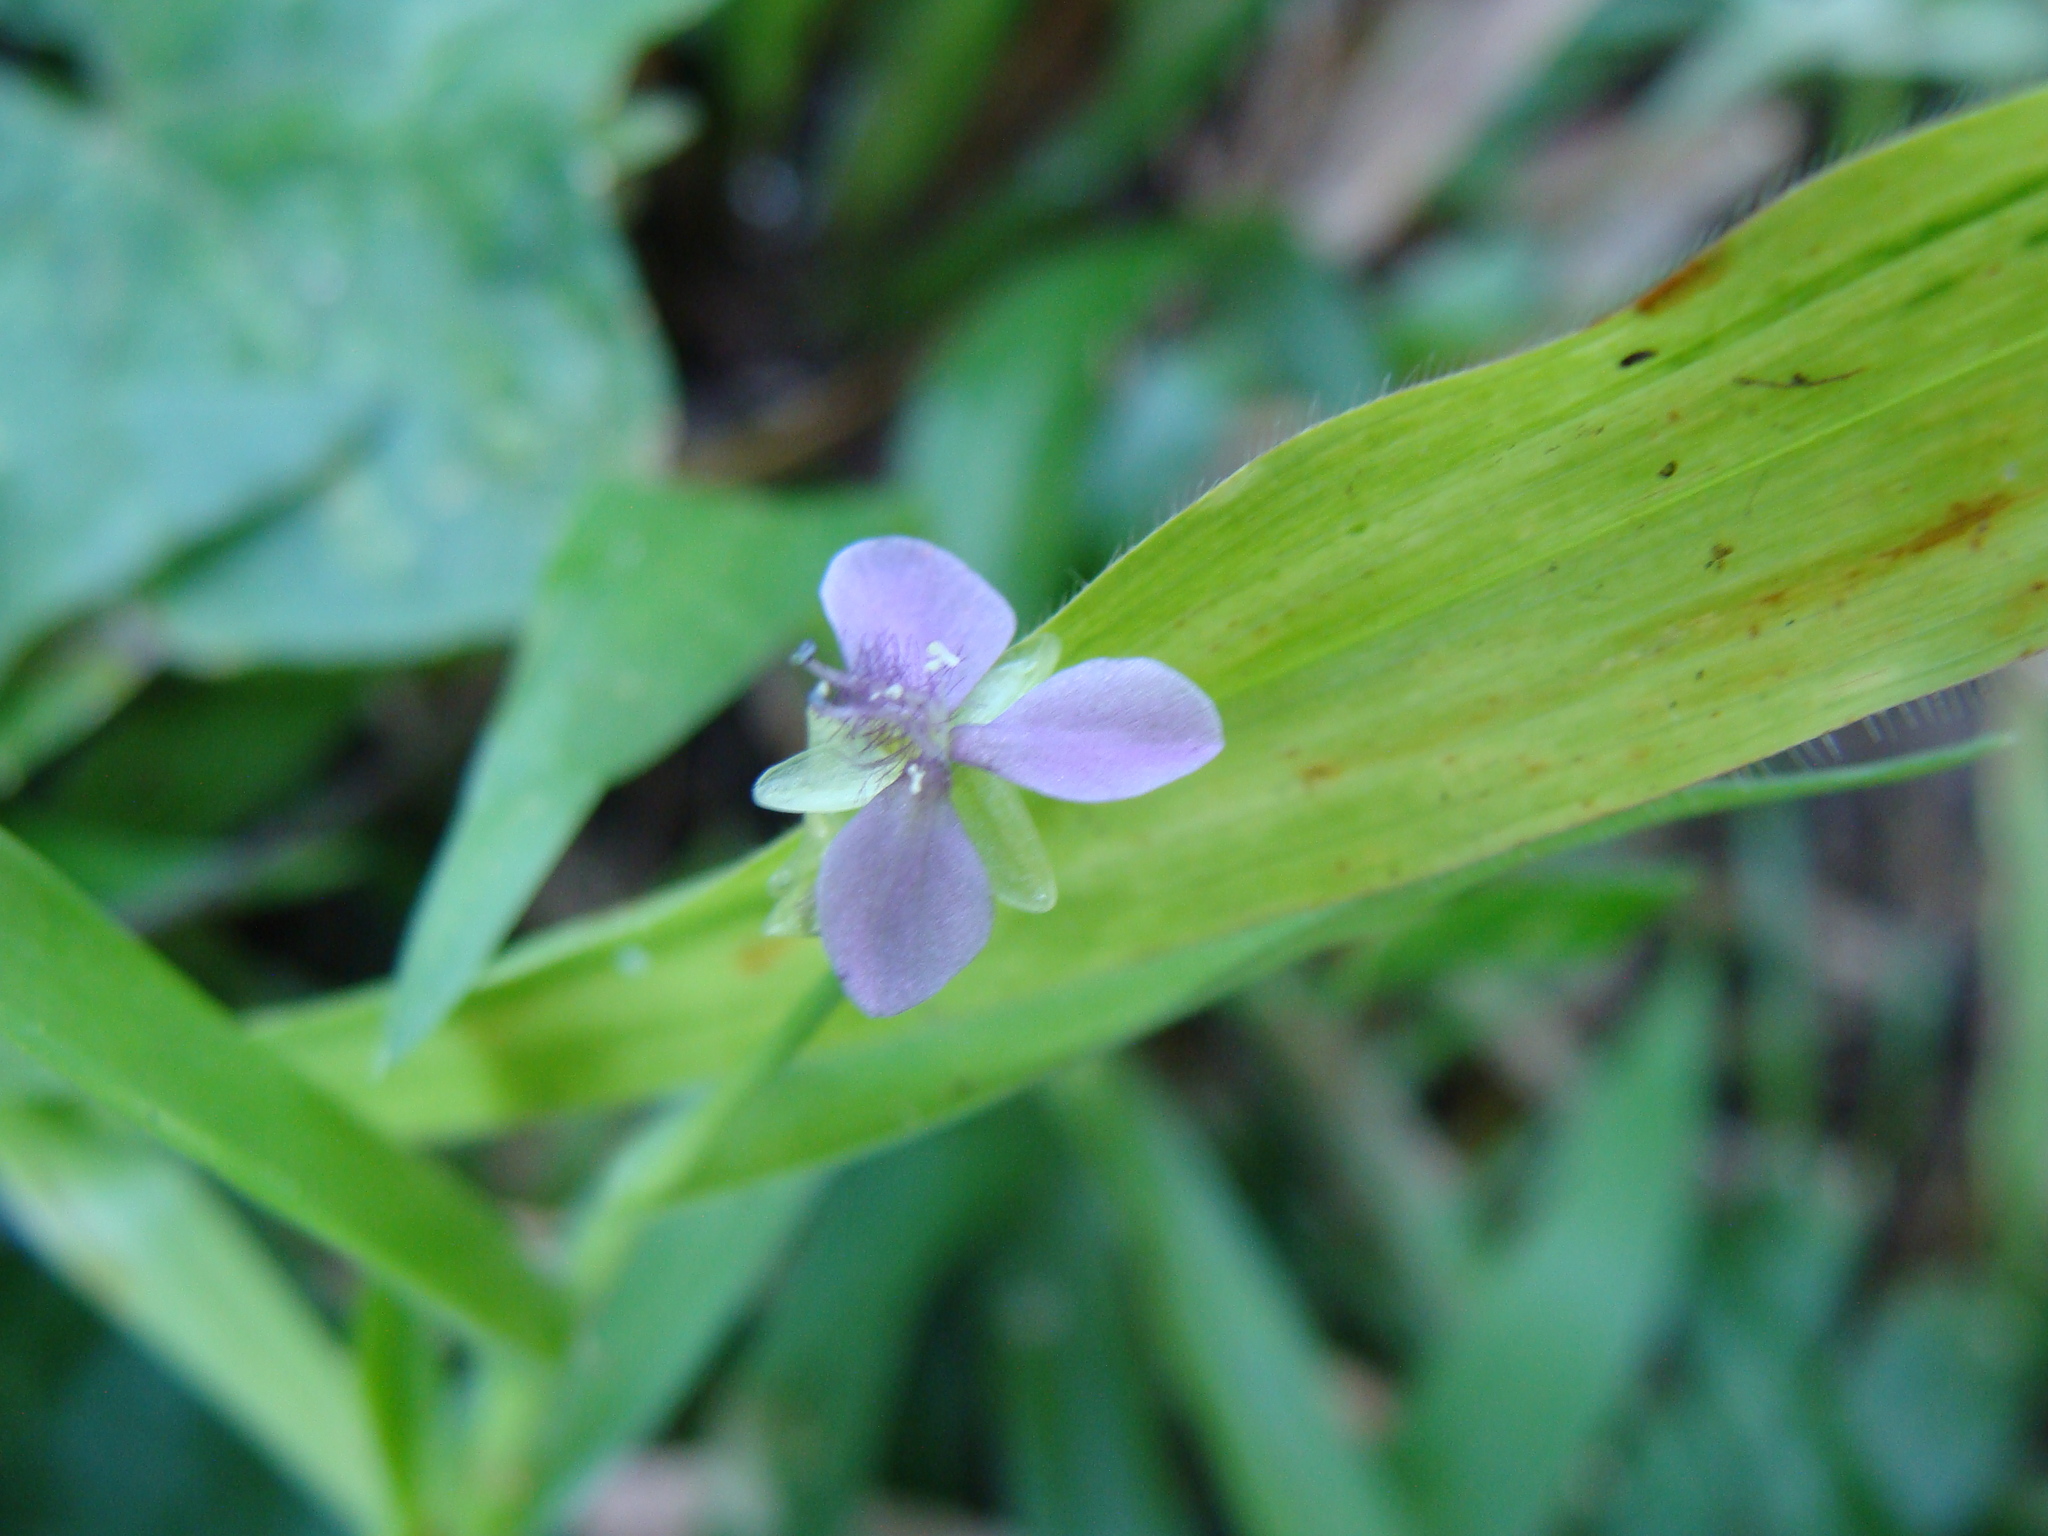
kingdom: Plantae
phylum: Tracheophyta
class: Liliopsida
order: Commelinales
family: Commelinaceae
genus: Murdannia
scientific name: Murdannia nudiflora
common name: Nakedstem dewflower
